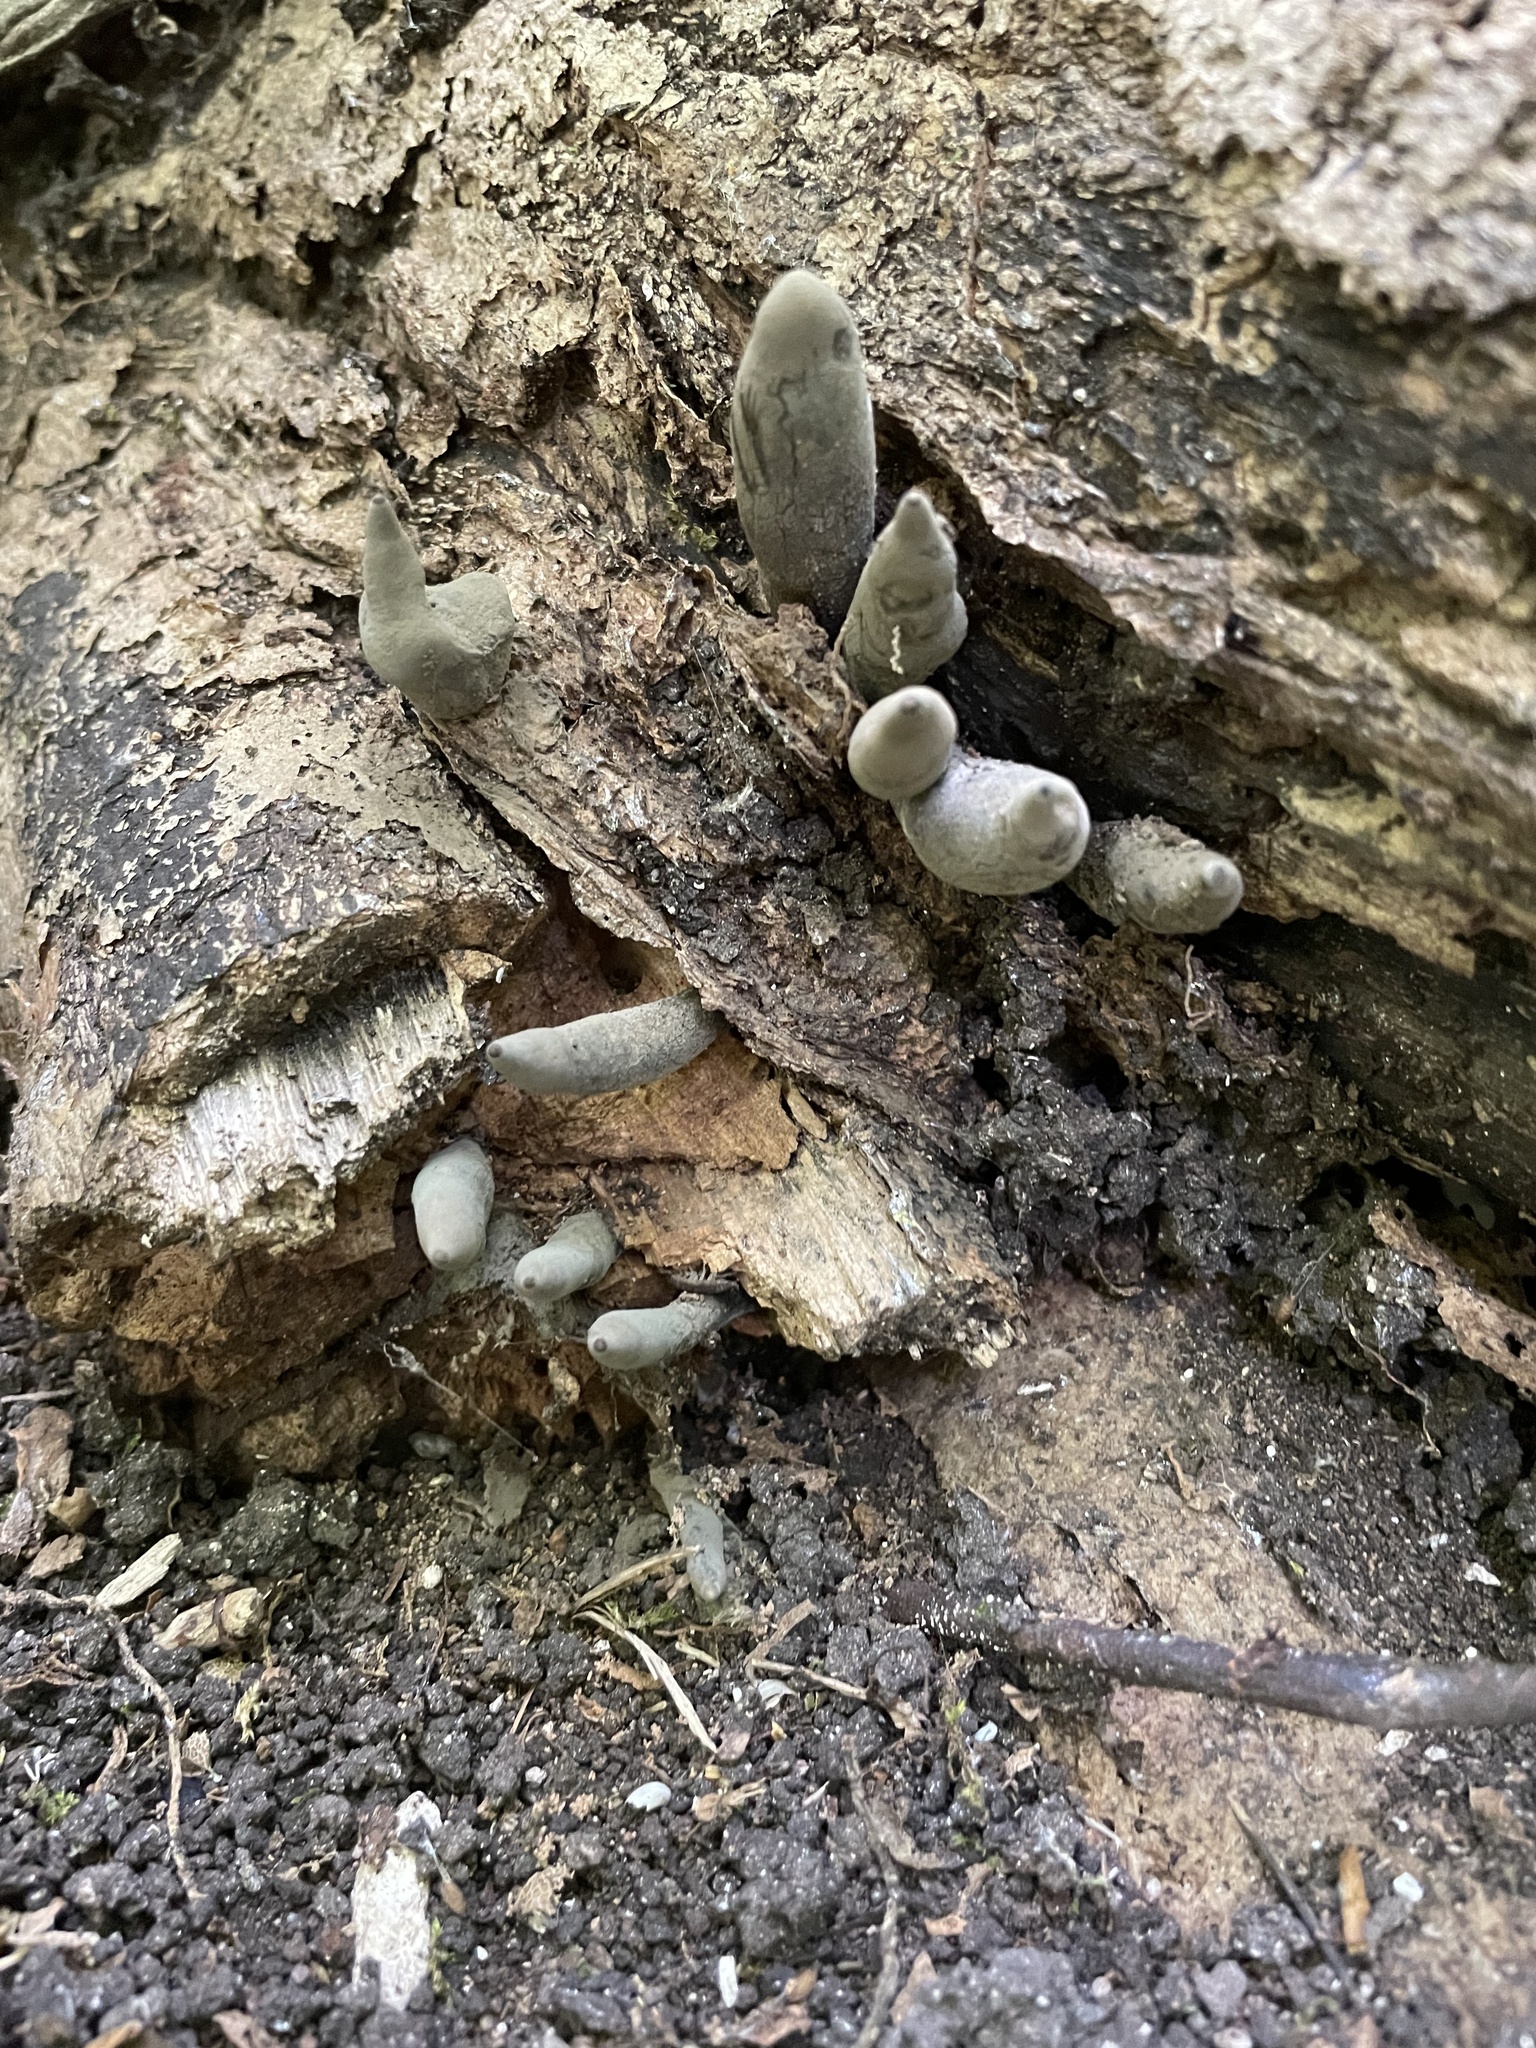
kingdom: Fungi
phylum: Ascomycota
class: Sordariomycetes
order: Xylariales
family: Xylariaceae
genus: Xylaria
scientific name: Xylaria polymorpha
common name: Dead man's fingers
